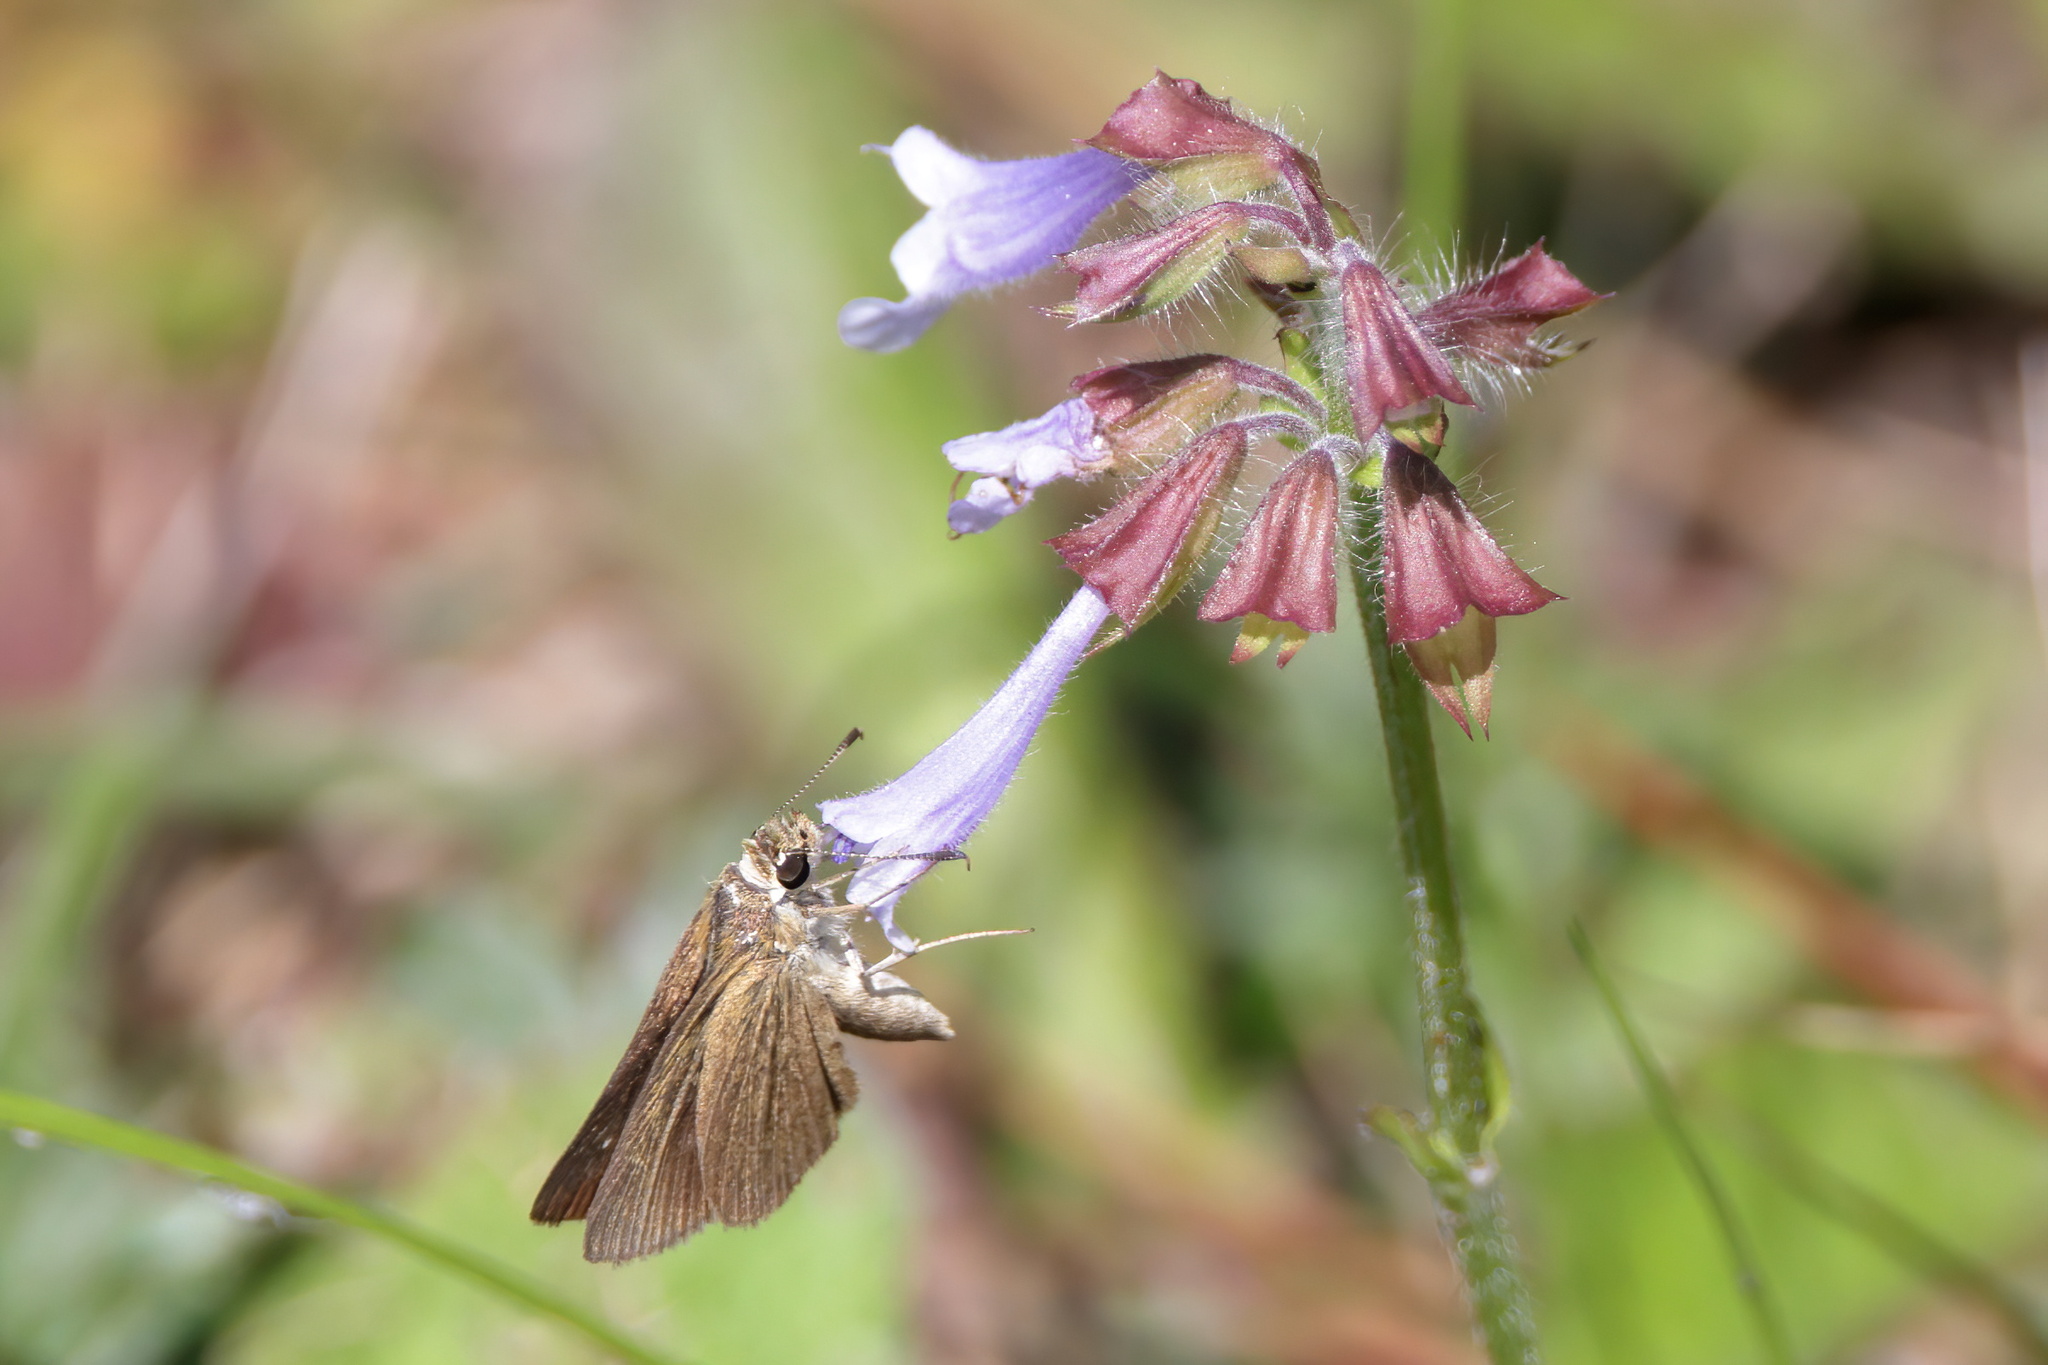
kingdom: Animalia
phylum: Arthropoda
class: Insecta
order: Lepidoptera
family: Hesperiidae
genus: Nastra
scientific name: Nastra
